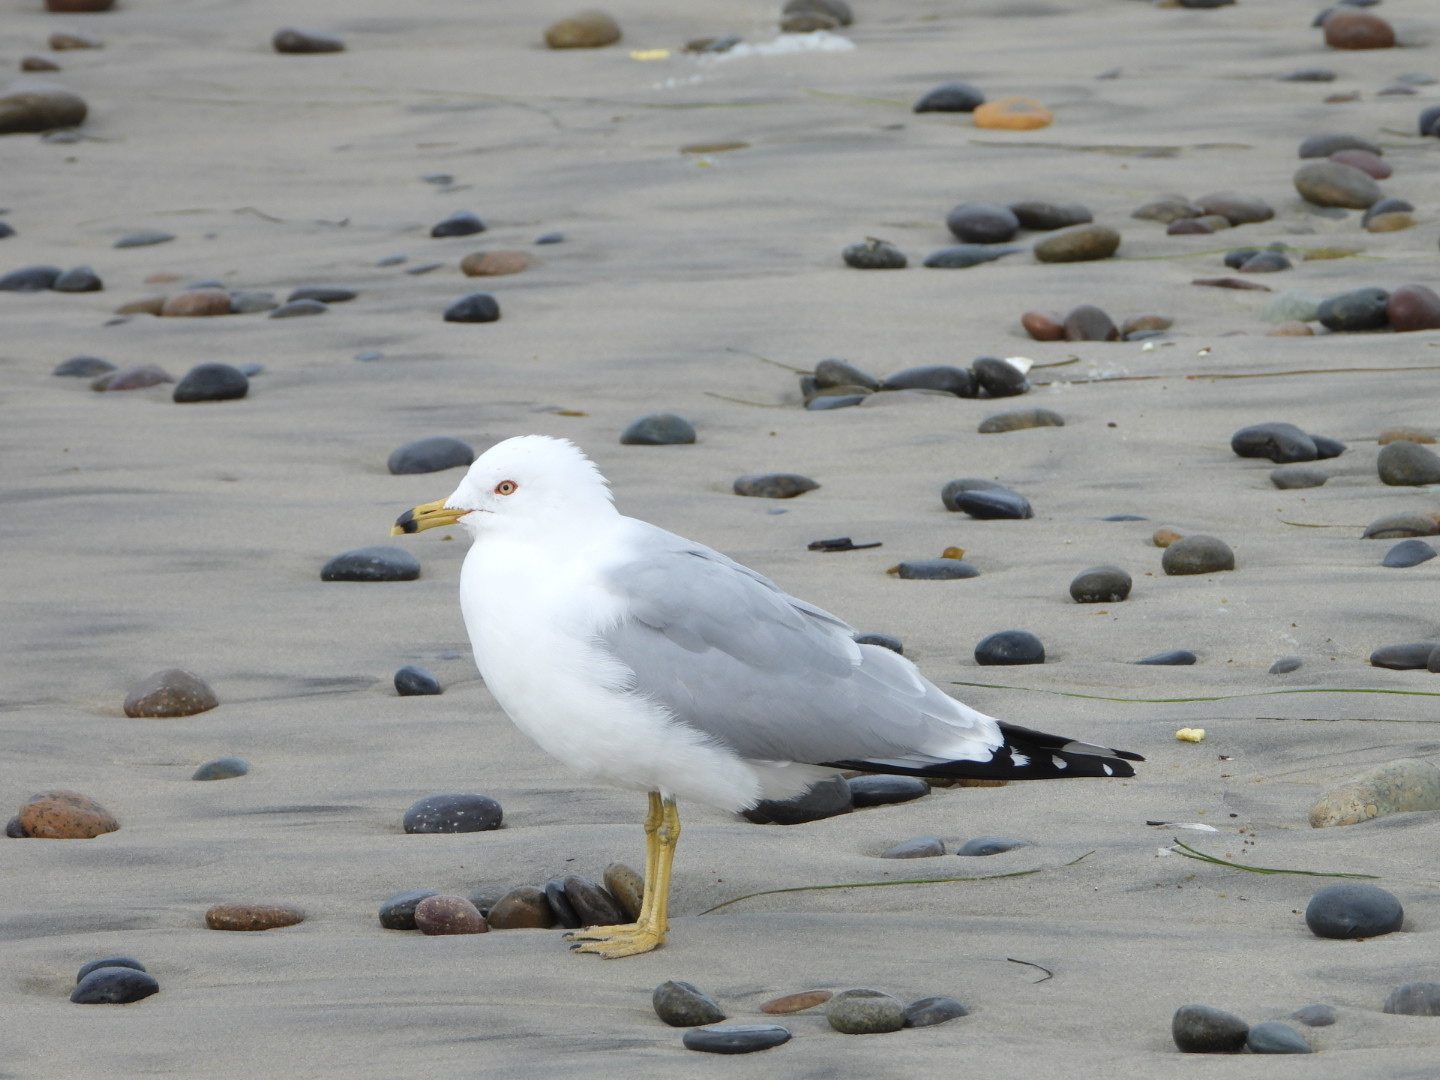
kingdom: Animalia
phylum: Chordata
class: Aves
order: Charadriiformes
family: Laridae
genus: Larus
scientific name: Larus delawarensis
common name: Ring-billed gull
